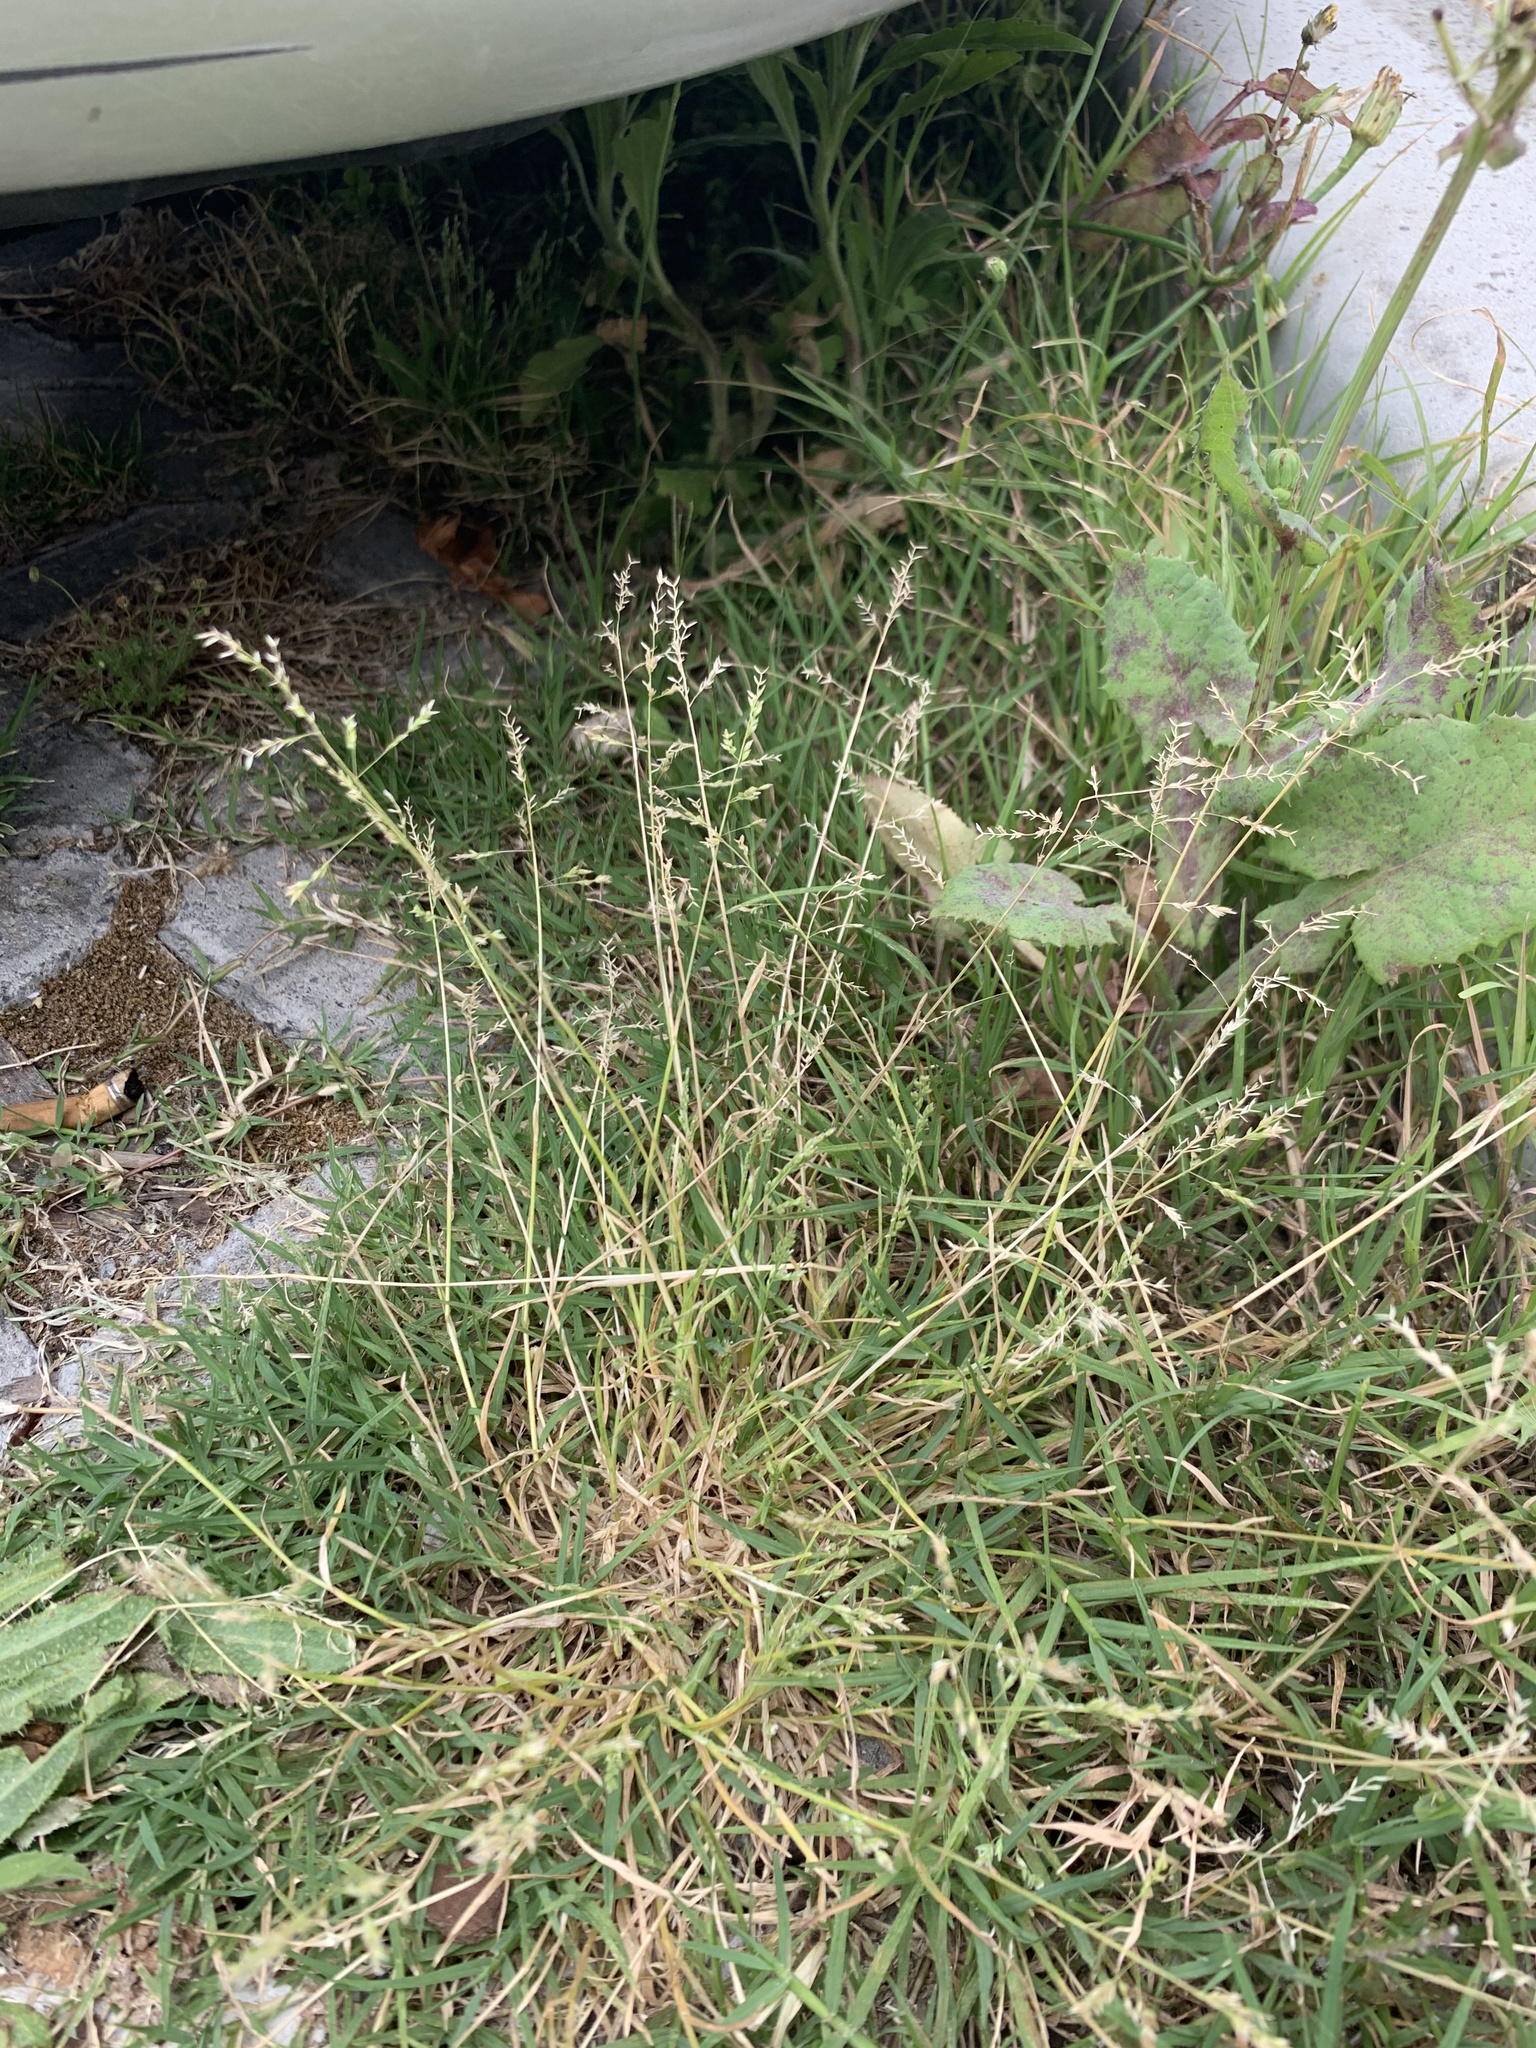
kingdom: Plantae
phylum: Tracheophyta
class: Liliopsida
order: Poales
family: Poaceae
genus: Poa
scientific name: Poa annua
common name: Annual bluegrass
